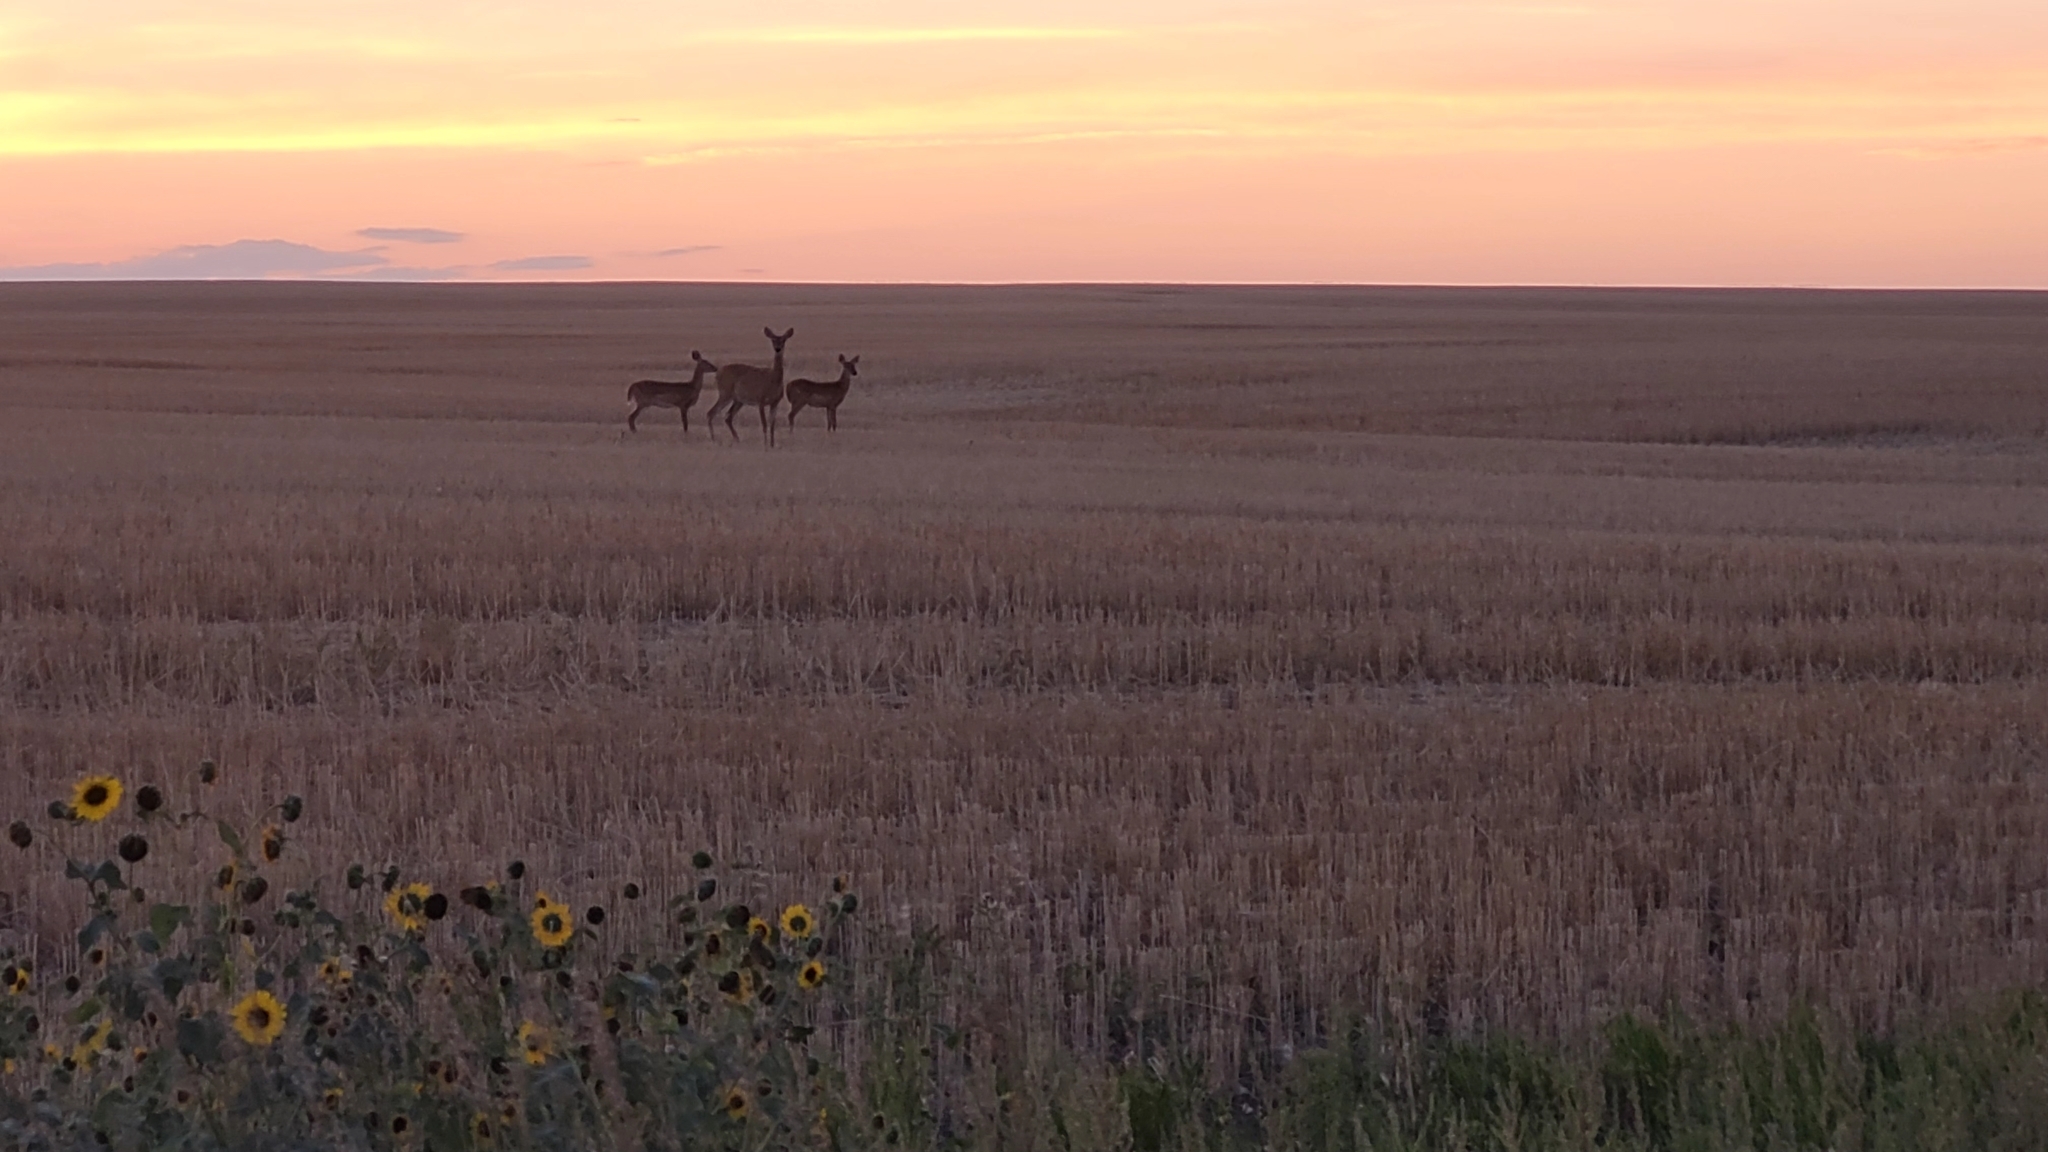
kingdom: Animalia
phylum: Chordata
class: Mammalia
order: Artiodactyla
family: Cervidae
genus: Odocoileus
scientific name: Odocoileus virginianus
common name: White-tailed deer
